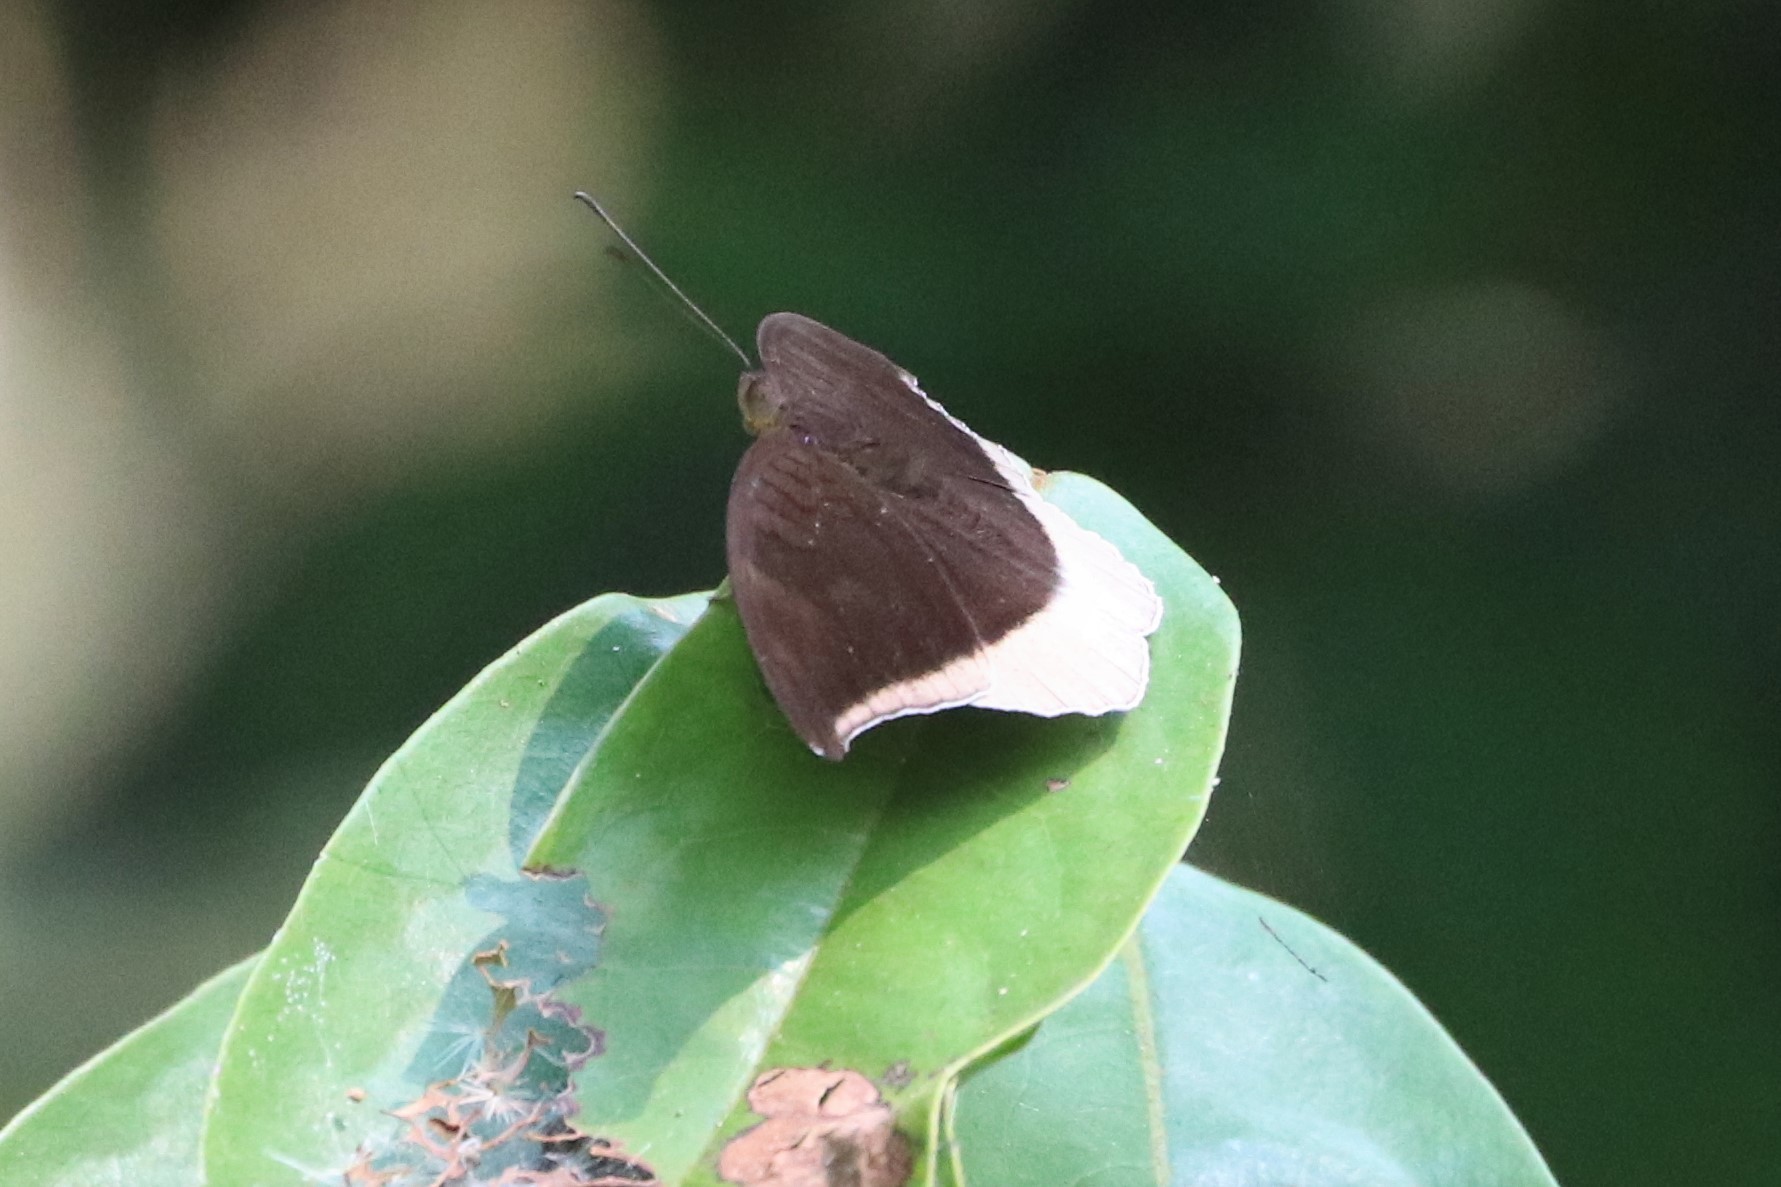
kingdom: Animalia
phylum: Arthropoda
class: Insecta
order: Lepidoptera
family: Nymphalidae
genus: Tanaecia
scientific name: Tanaecia lepidea
